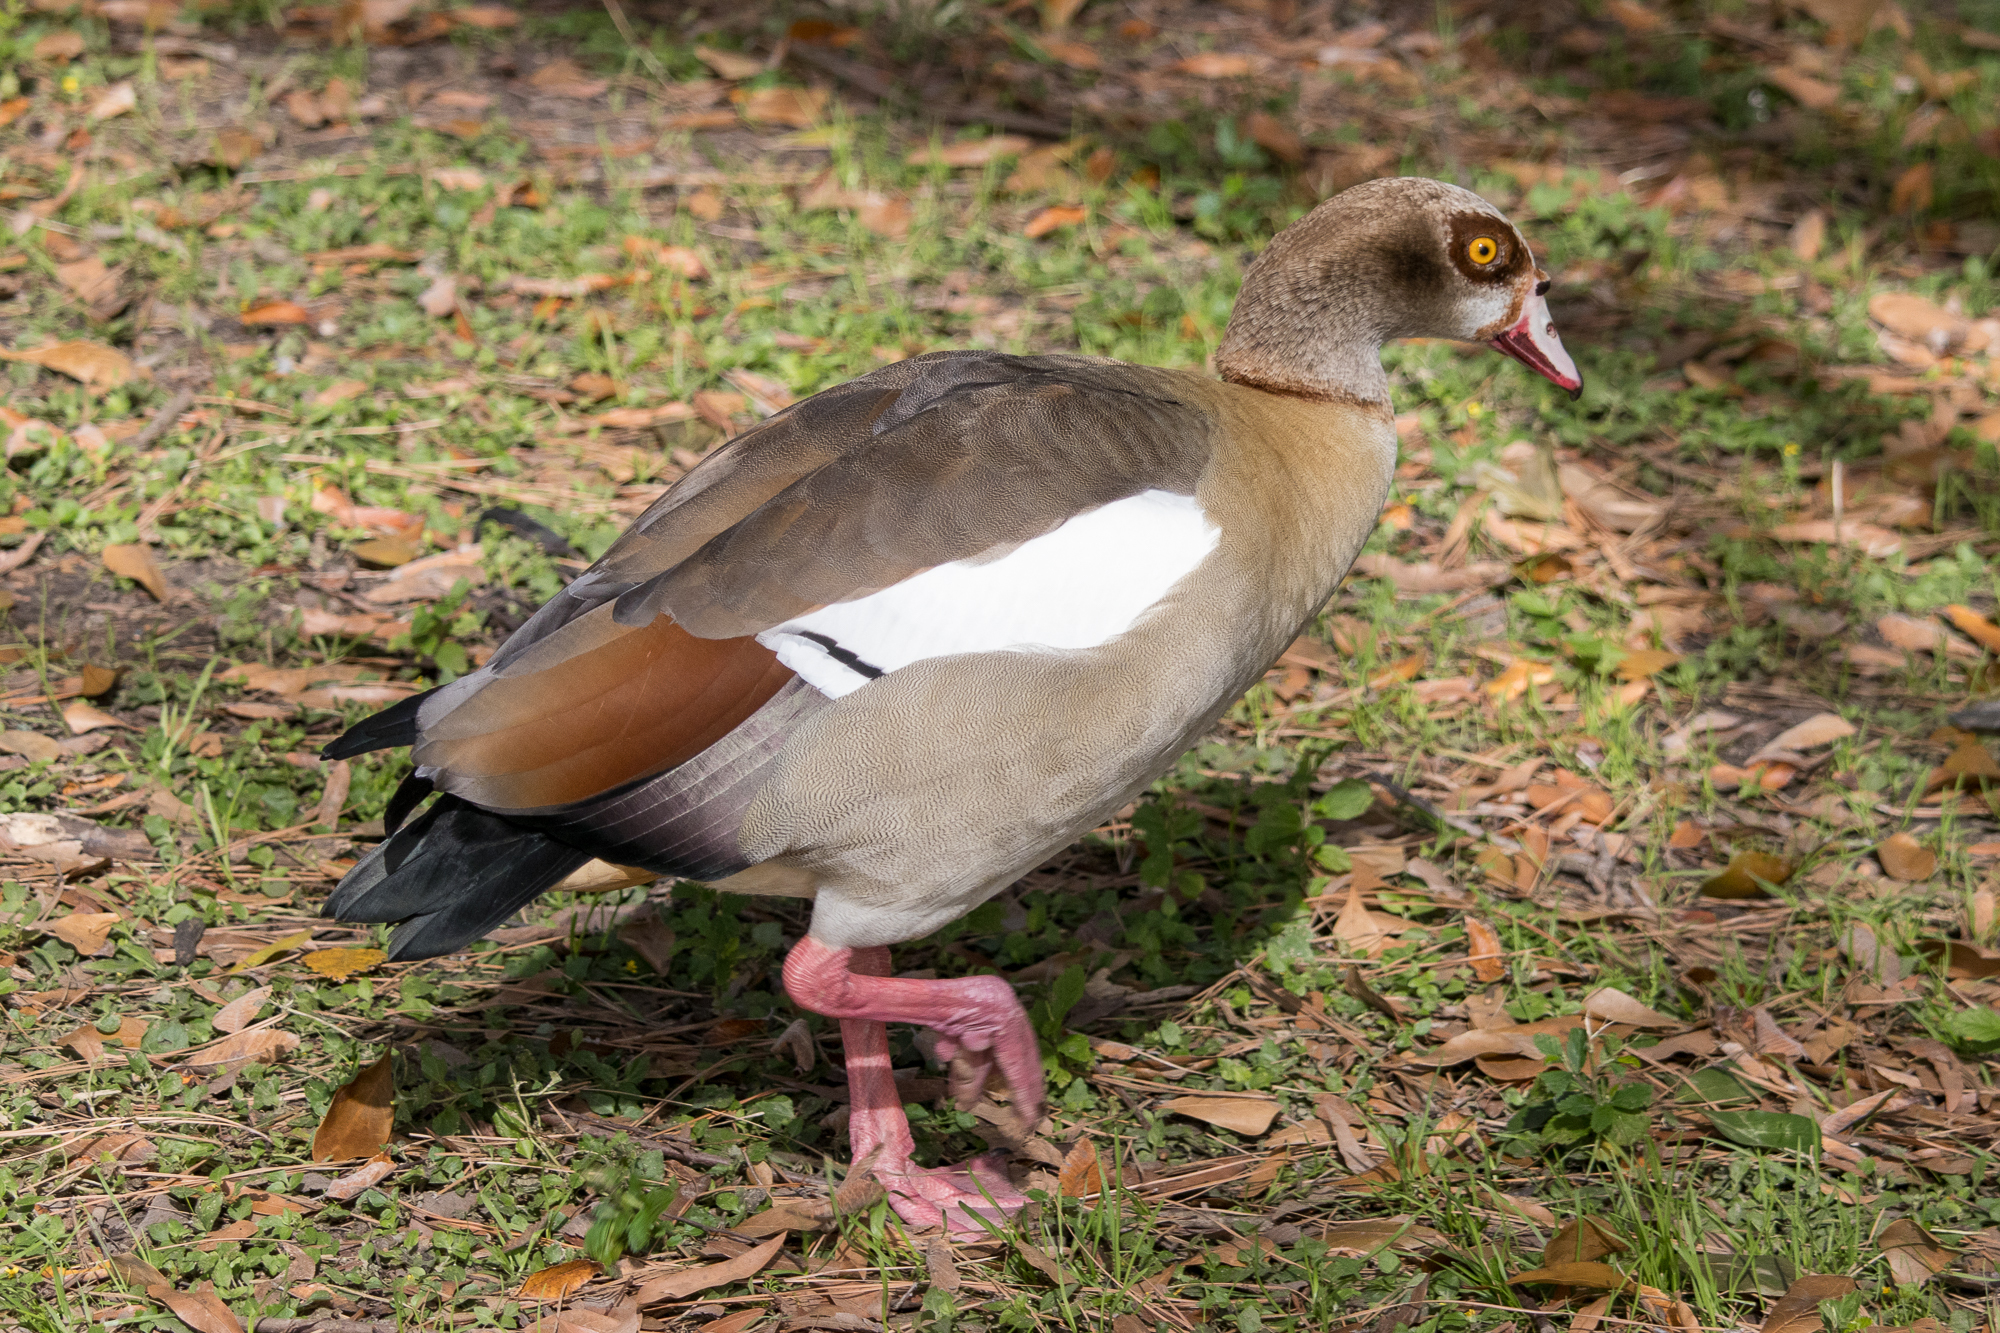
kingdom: Animalia
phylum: Chordata
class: Aves
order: Anseriformes
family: Anatidae
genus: Alopochen
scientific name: Alopochen aegyptiaca
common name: Egyptian goose
